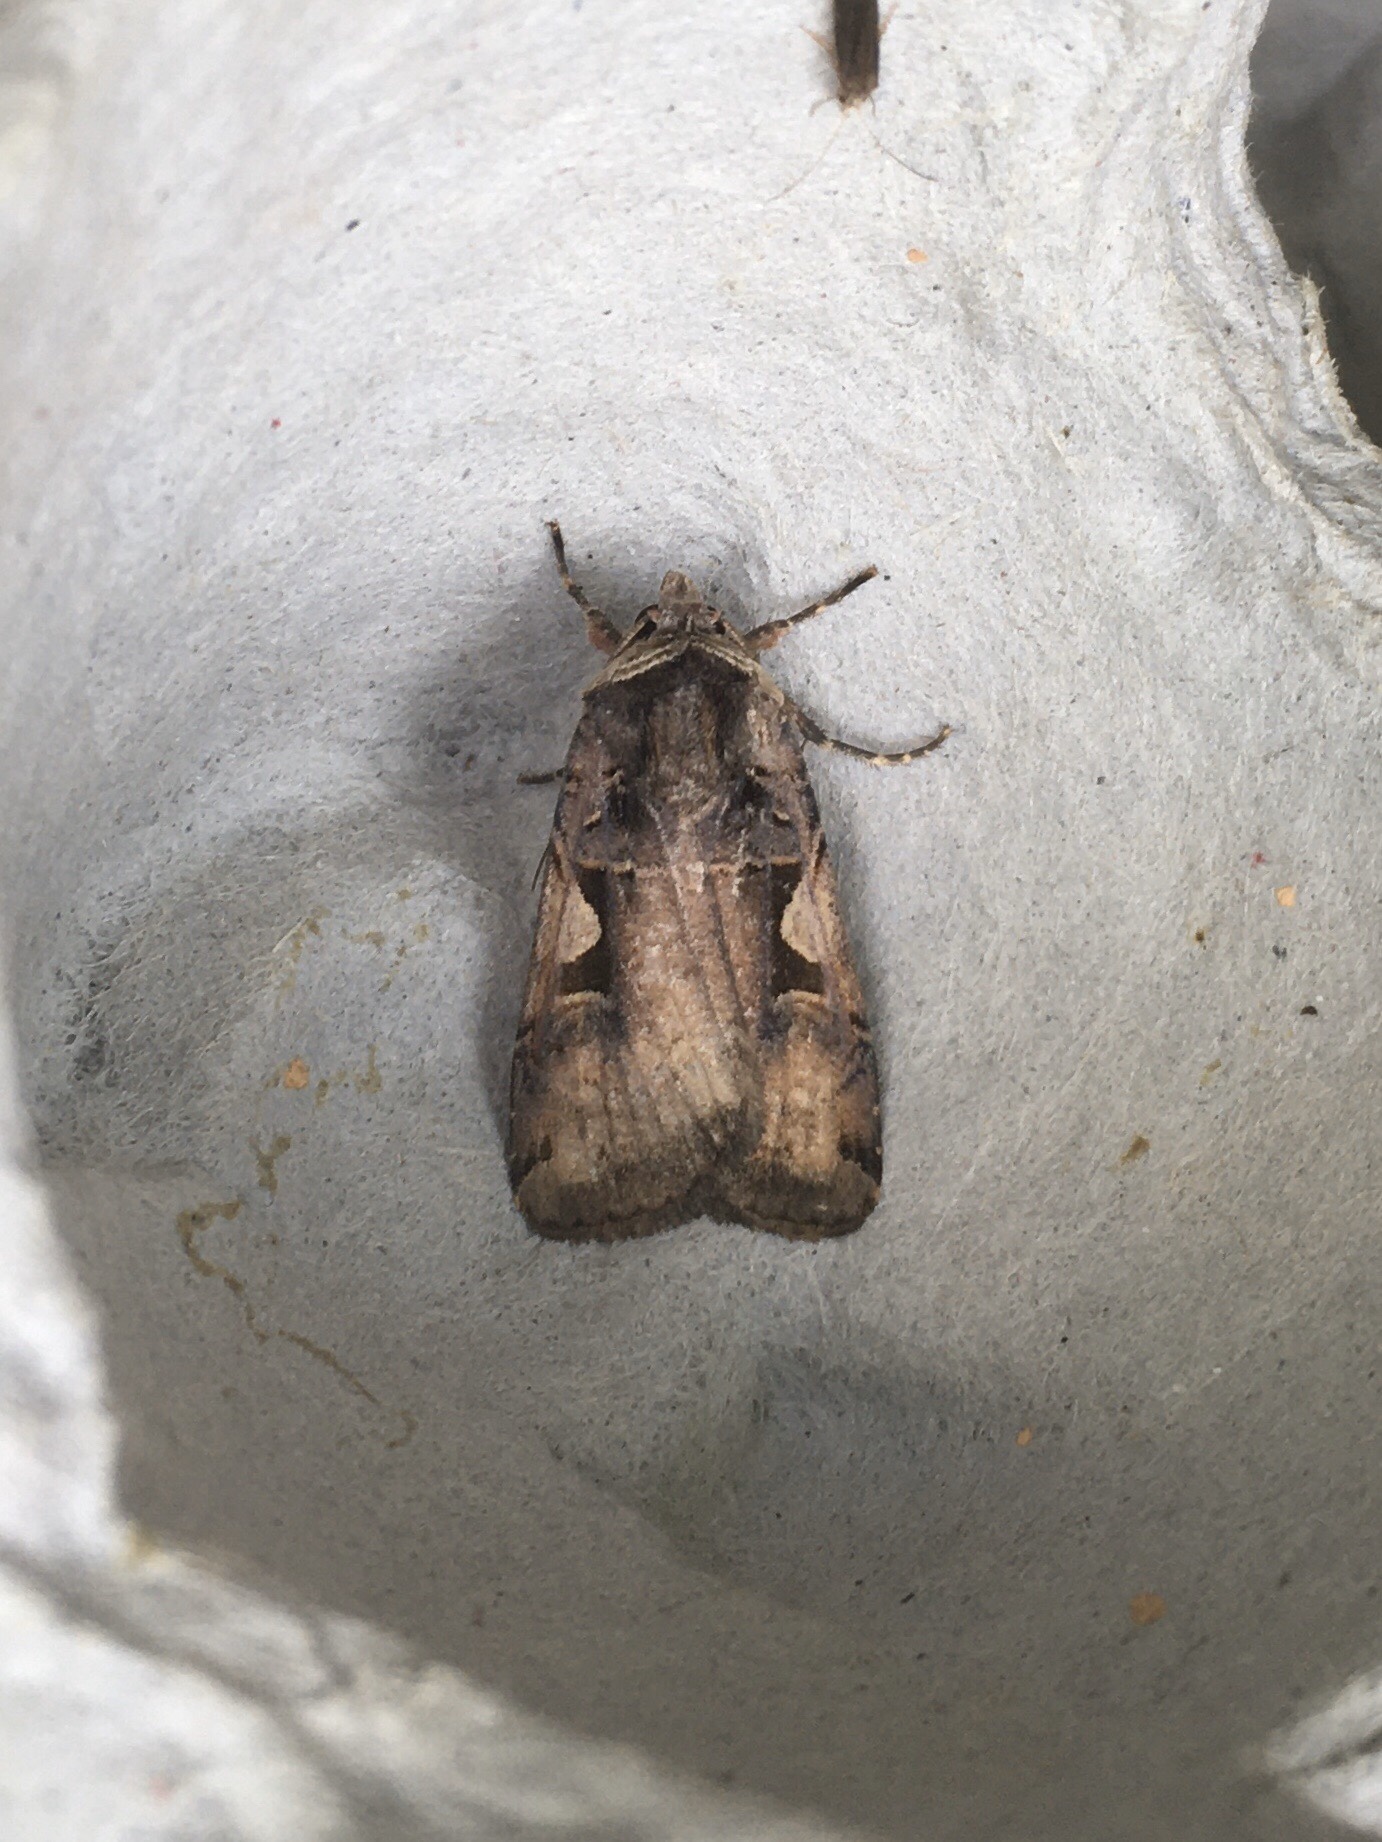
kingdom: Animalia
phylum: Arthropoda
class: Insecta
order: Lepidoptera
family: Noctuidae
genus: Xestia
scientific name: Xestia
